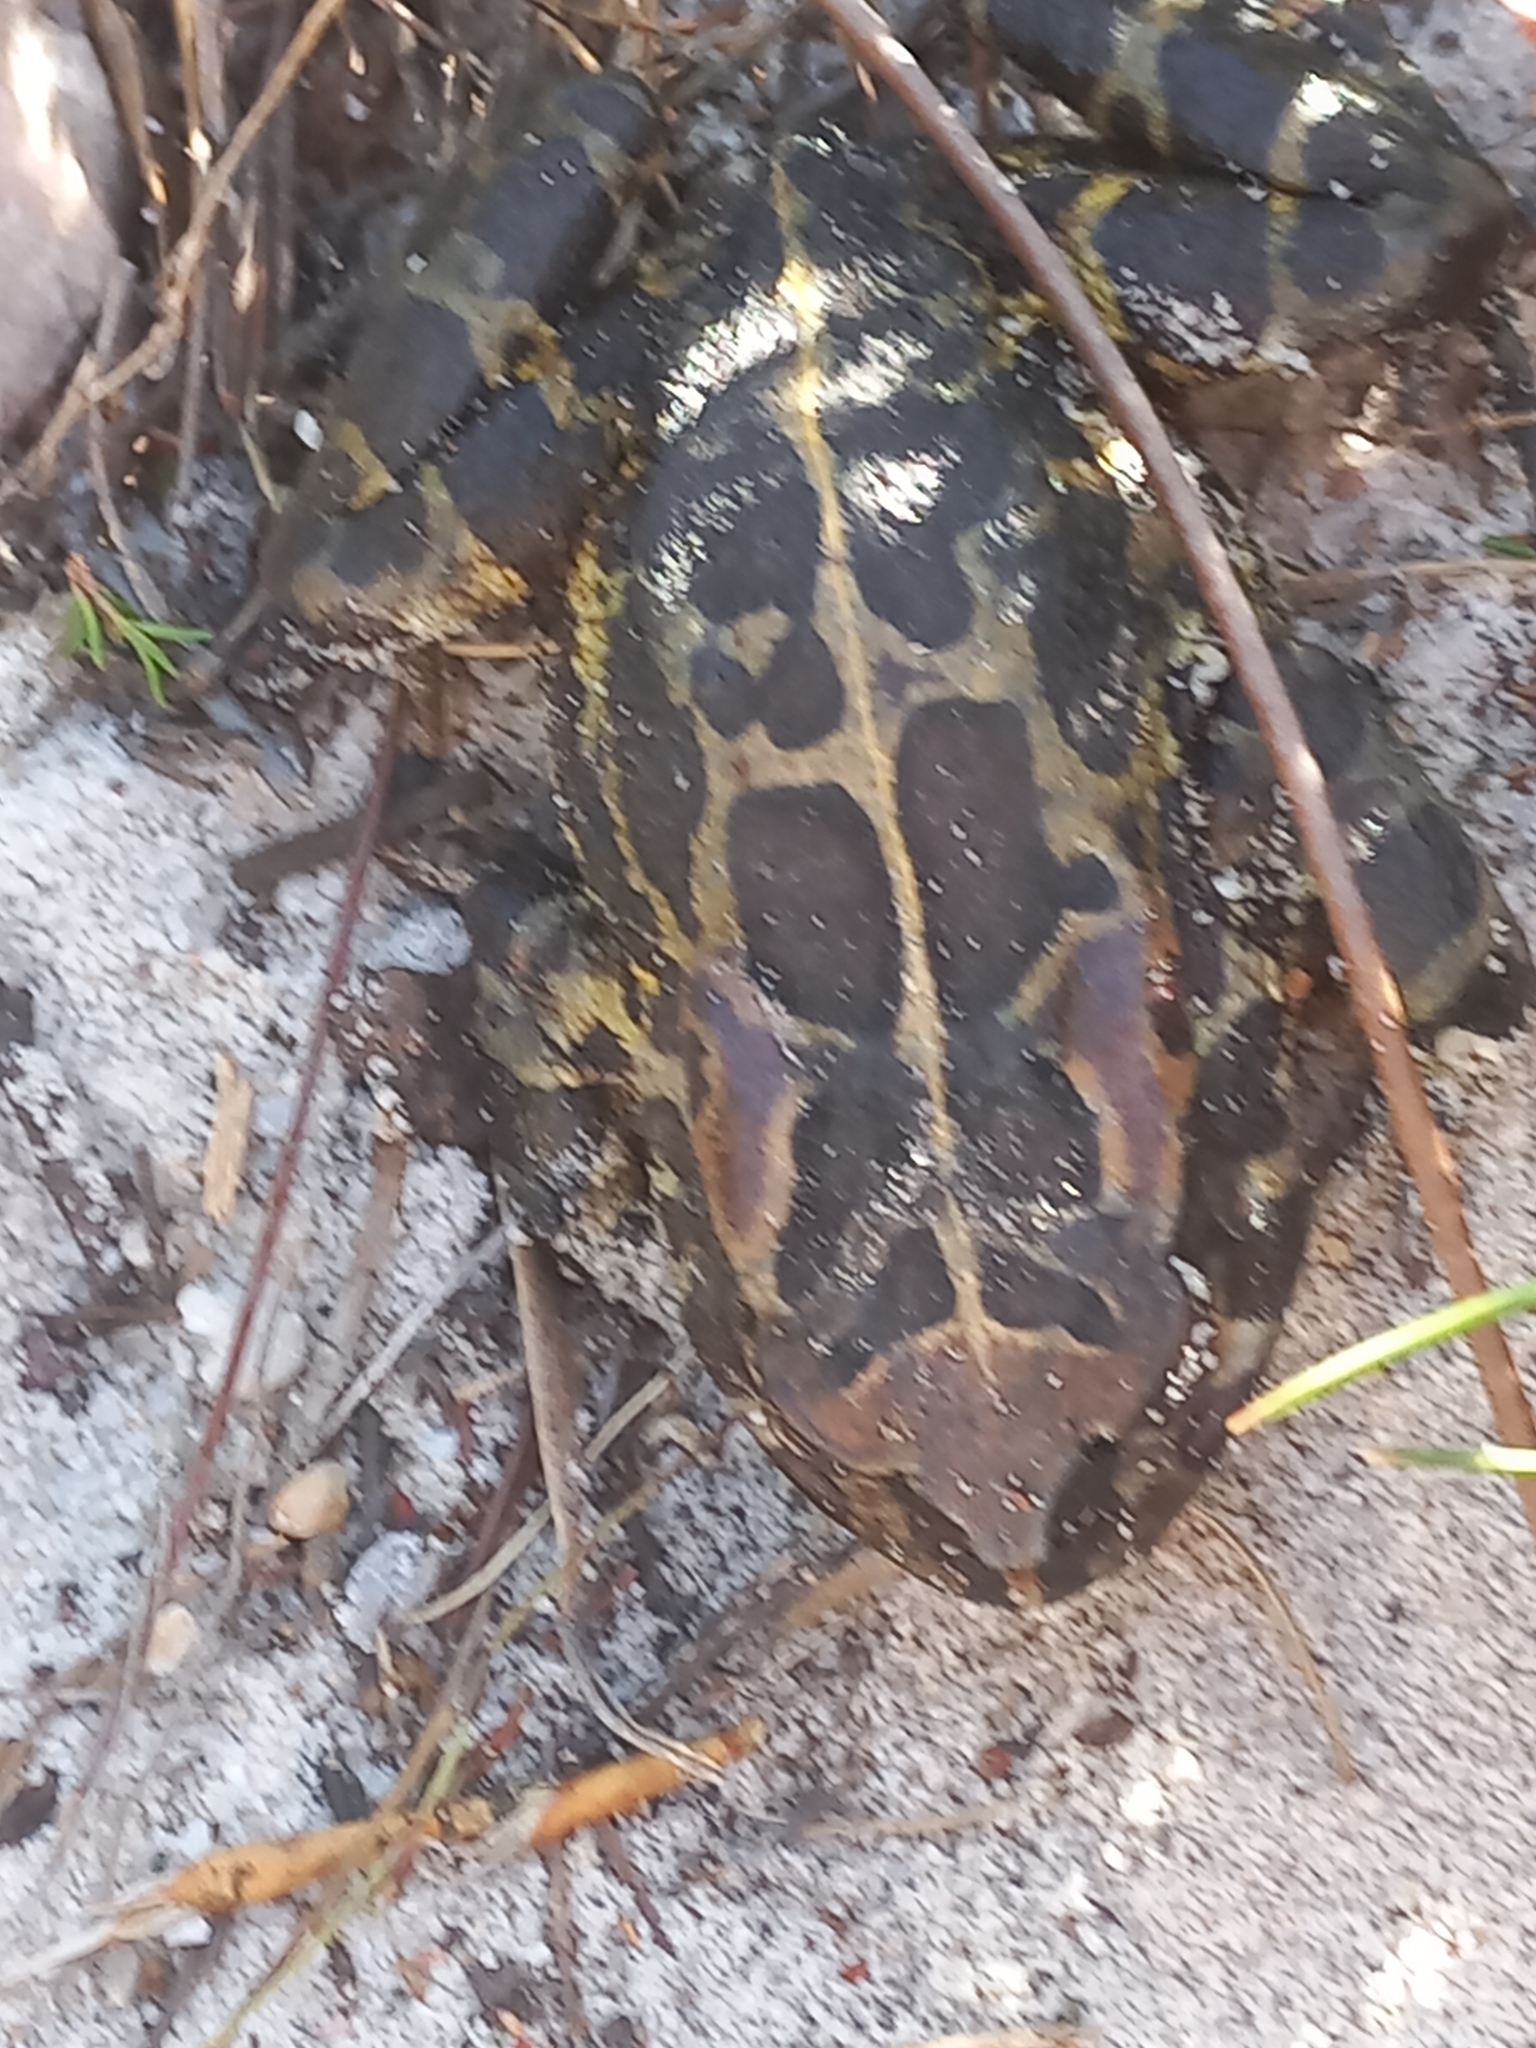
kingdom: Animalia
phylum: Chordata
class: Amphibia
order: Anura
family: Bufonidae
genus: Sclerophrys
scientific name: Sclerophrys pantherina
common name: Panther toad
